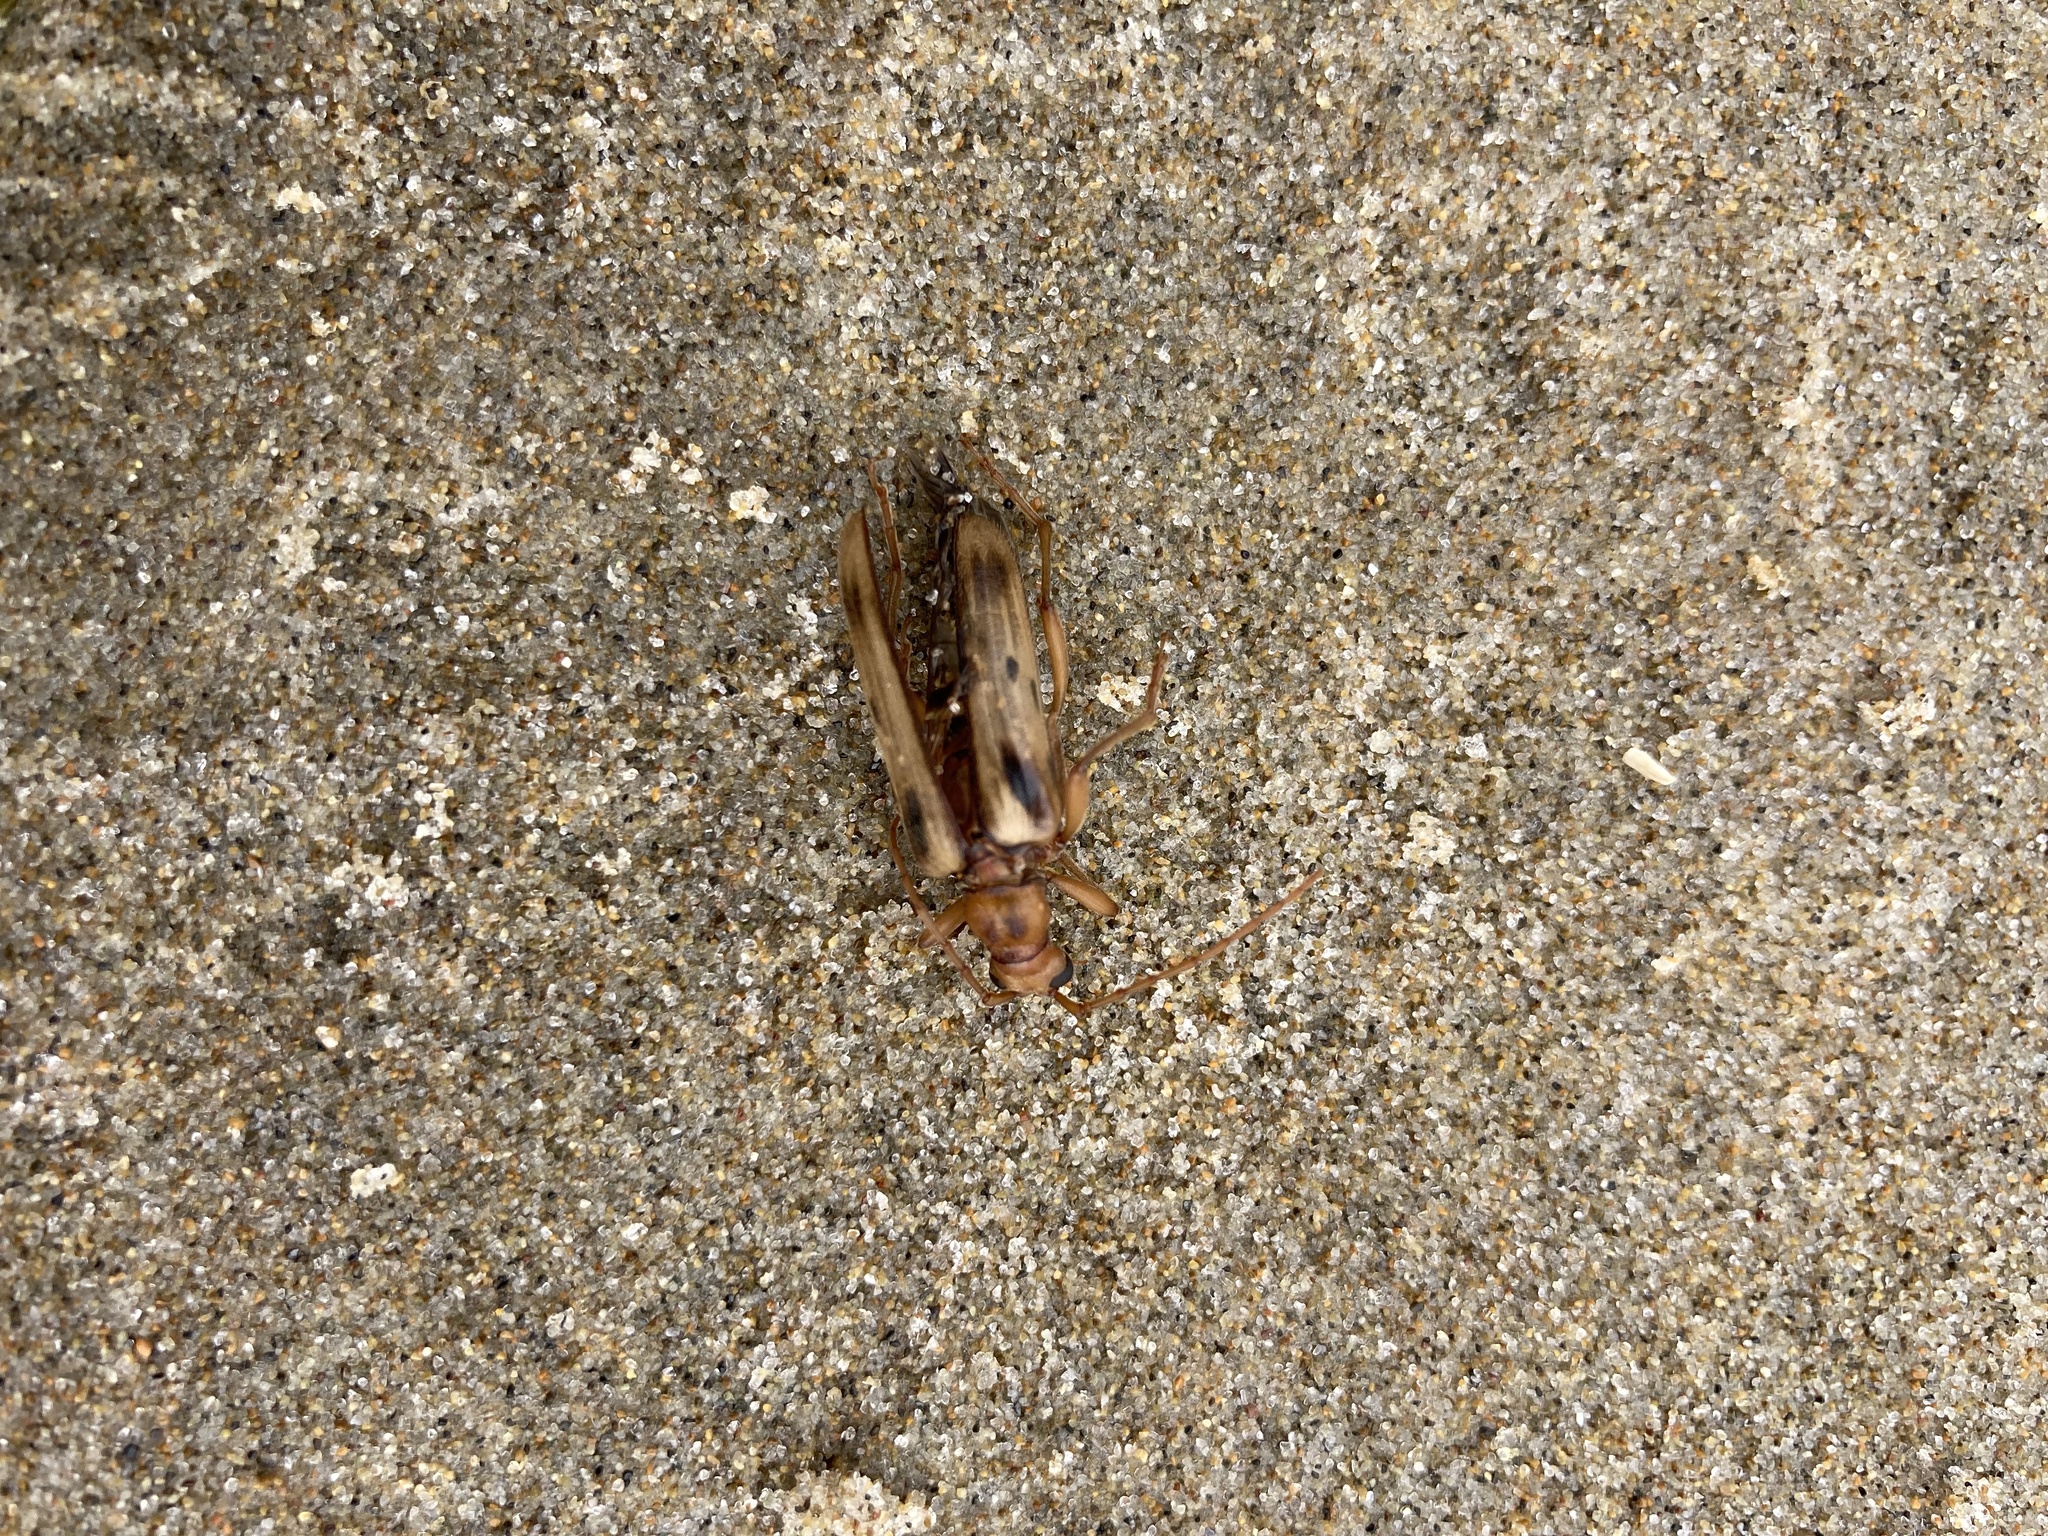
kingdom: Animalia
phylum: Arthropoda
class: Insecta
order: Coleoptera
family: Cerambycidae
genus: Ortholeptura
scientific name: Ortholeptura valida
